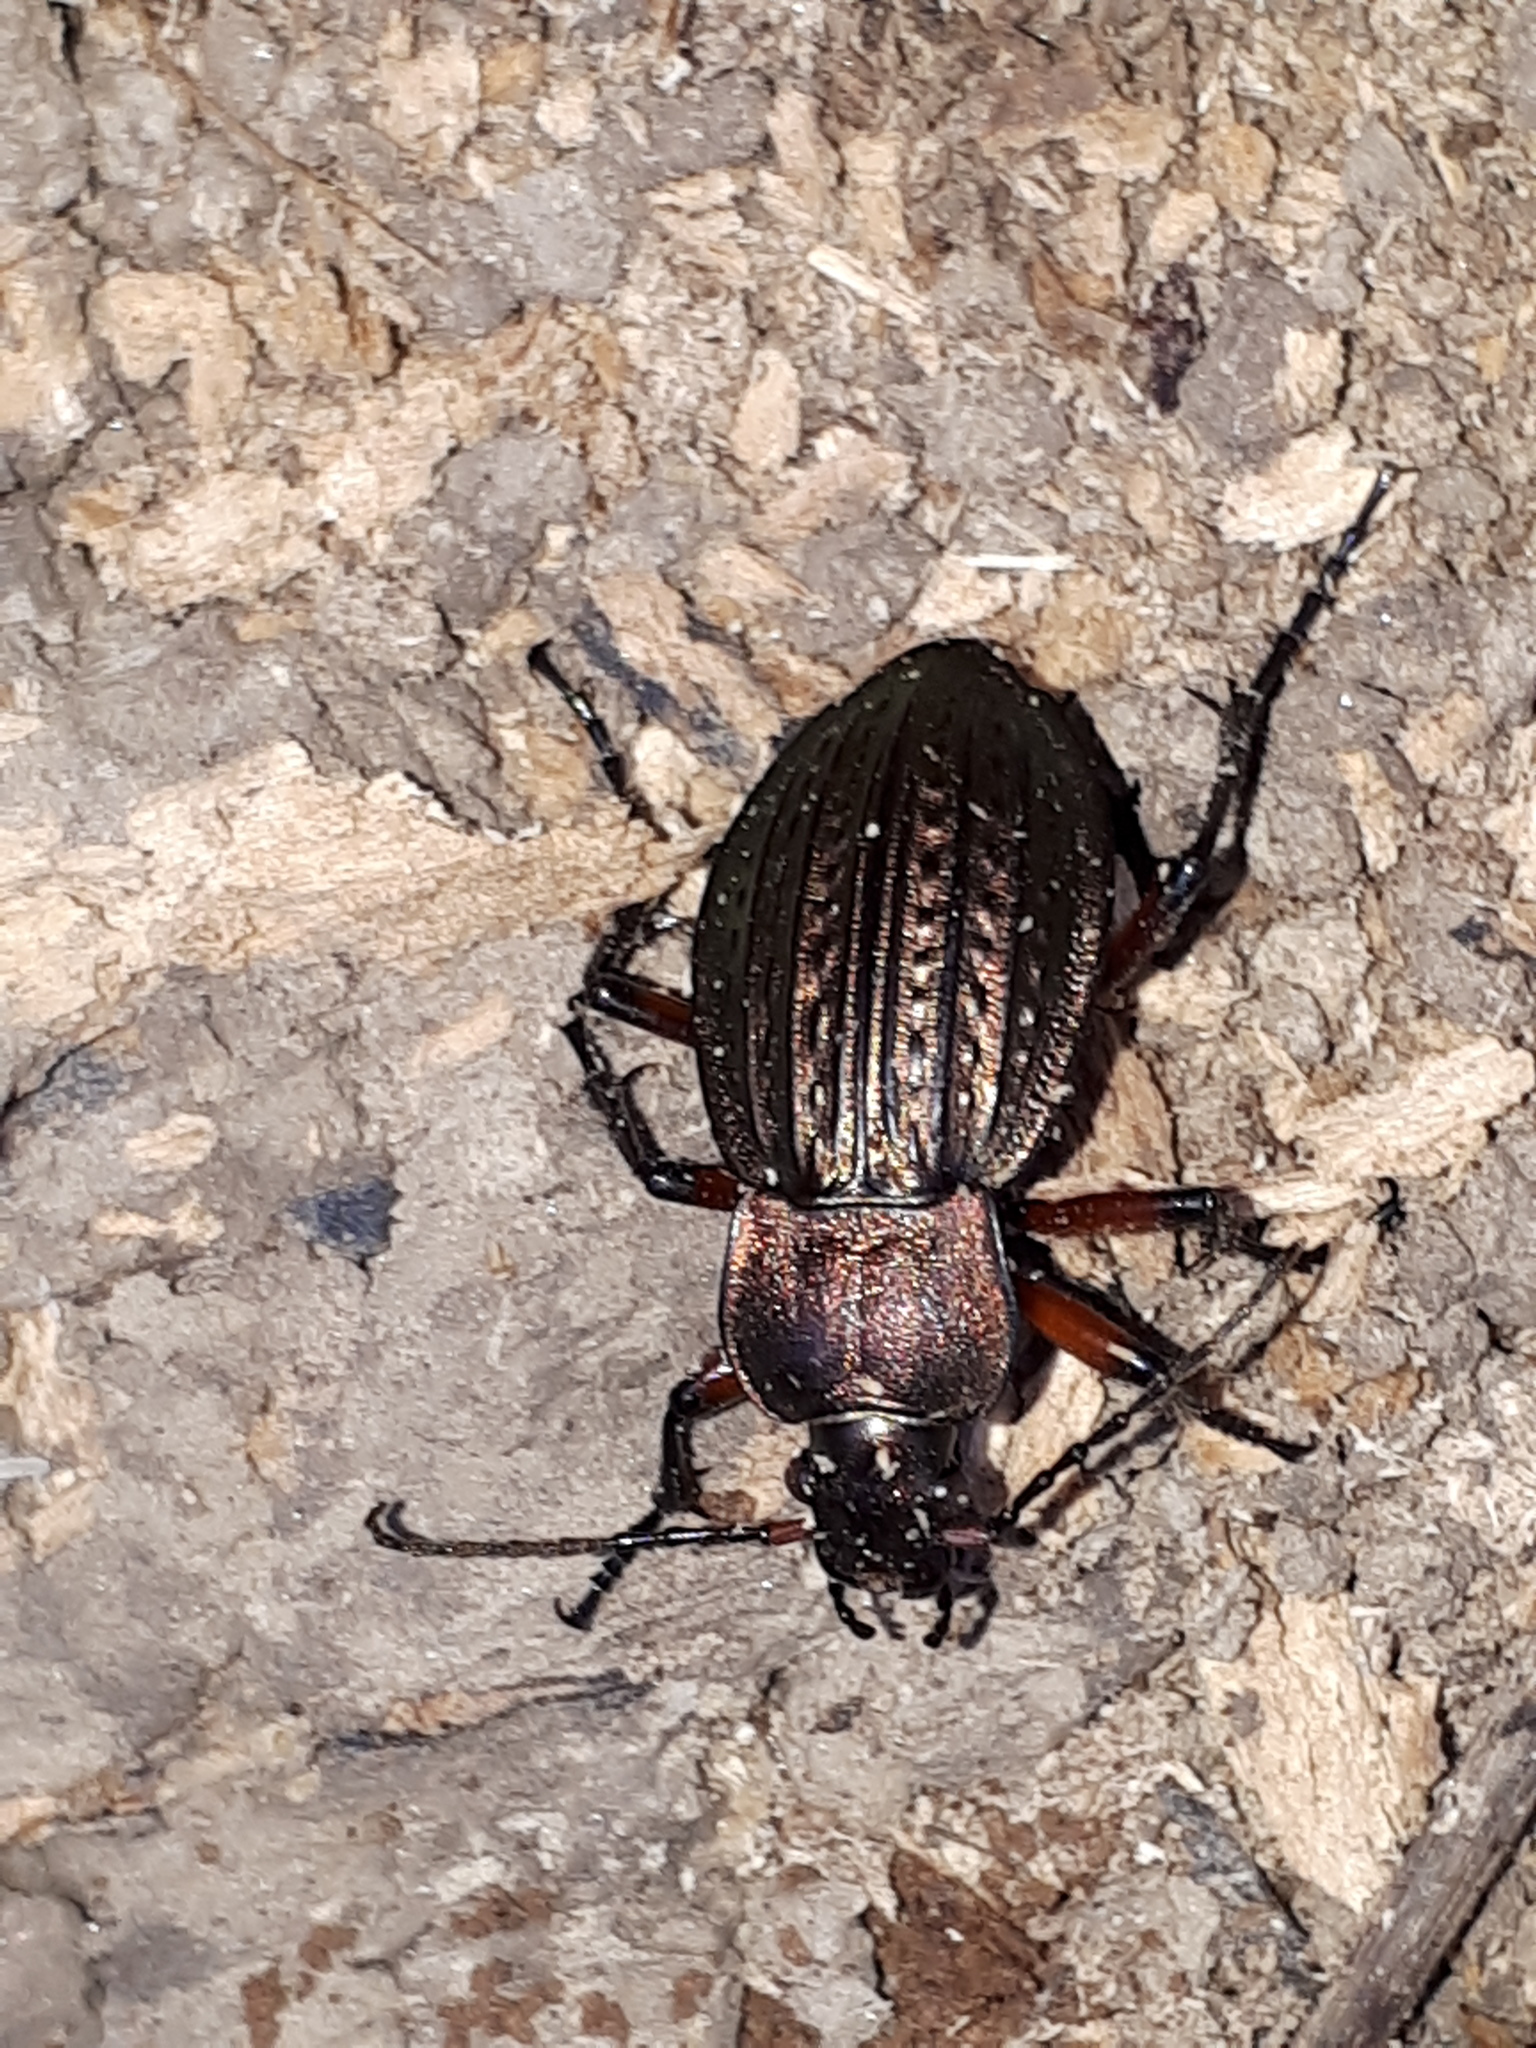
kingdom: Animalia
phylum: Arthropoda
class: Insecta
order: Coleoptera
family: Carabidae
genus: Carabus
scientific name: Carabus cancellatus
